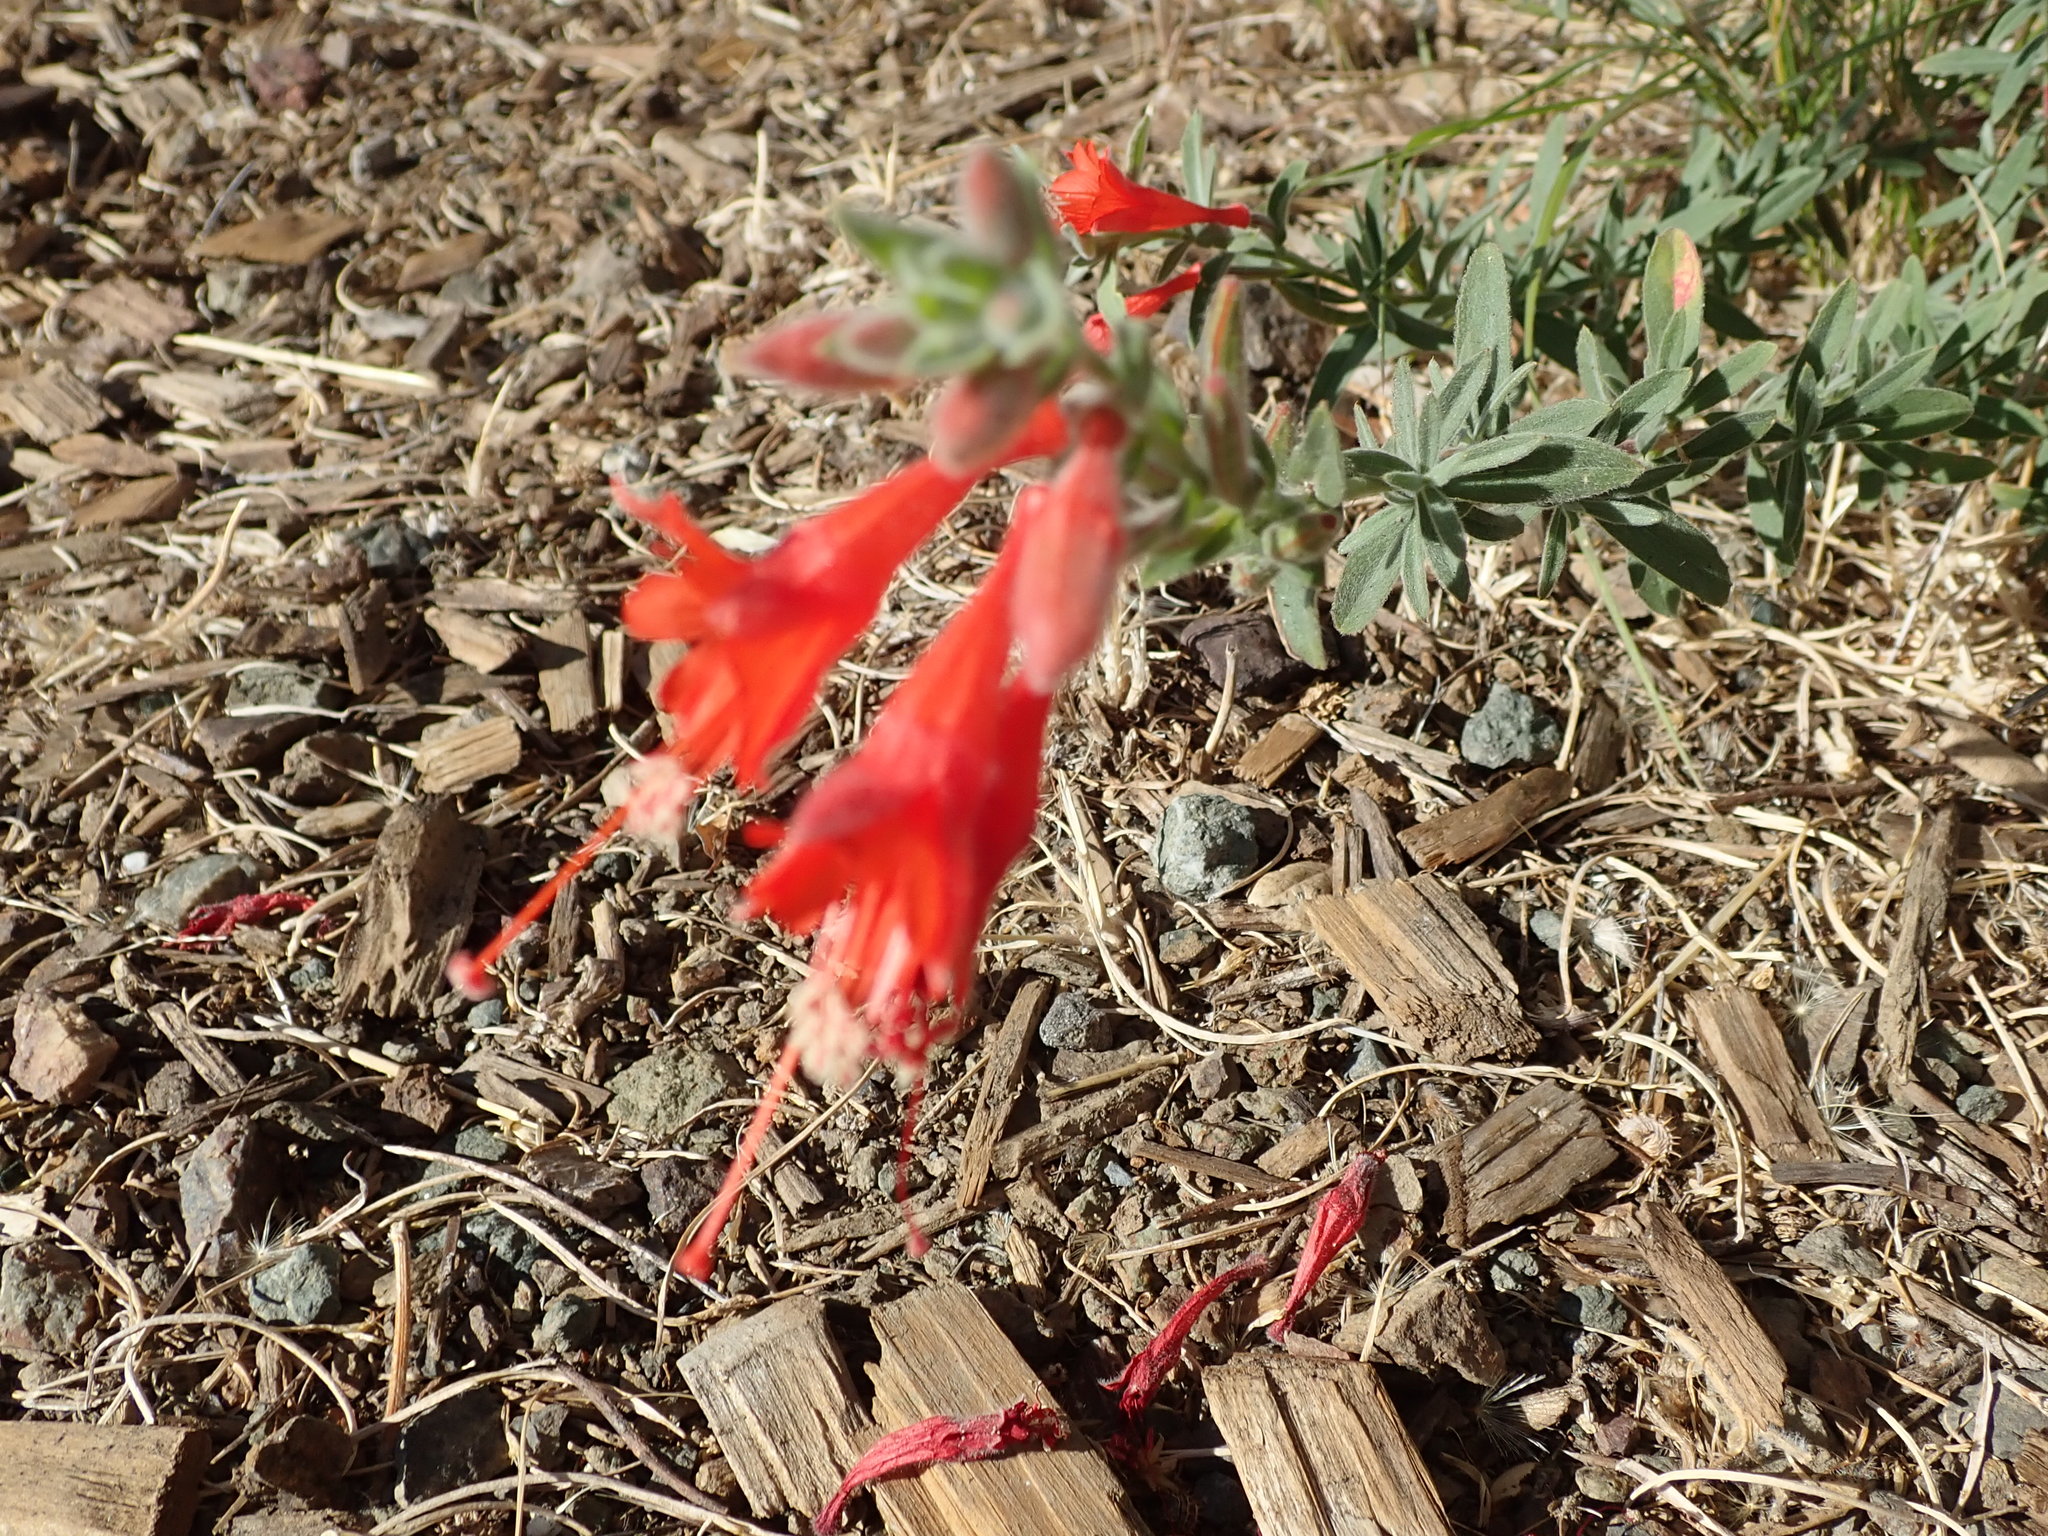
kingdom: Plantae
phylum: Tracheophyta
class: Magnoliopsida
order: Myrtales
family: Onagraceae
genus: Epilobium
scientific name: Epilobium canum
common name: California-fuchsia
